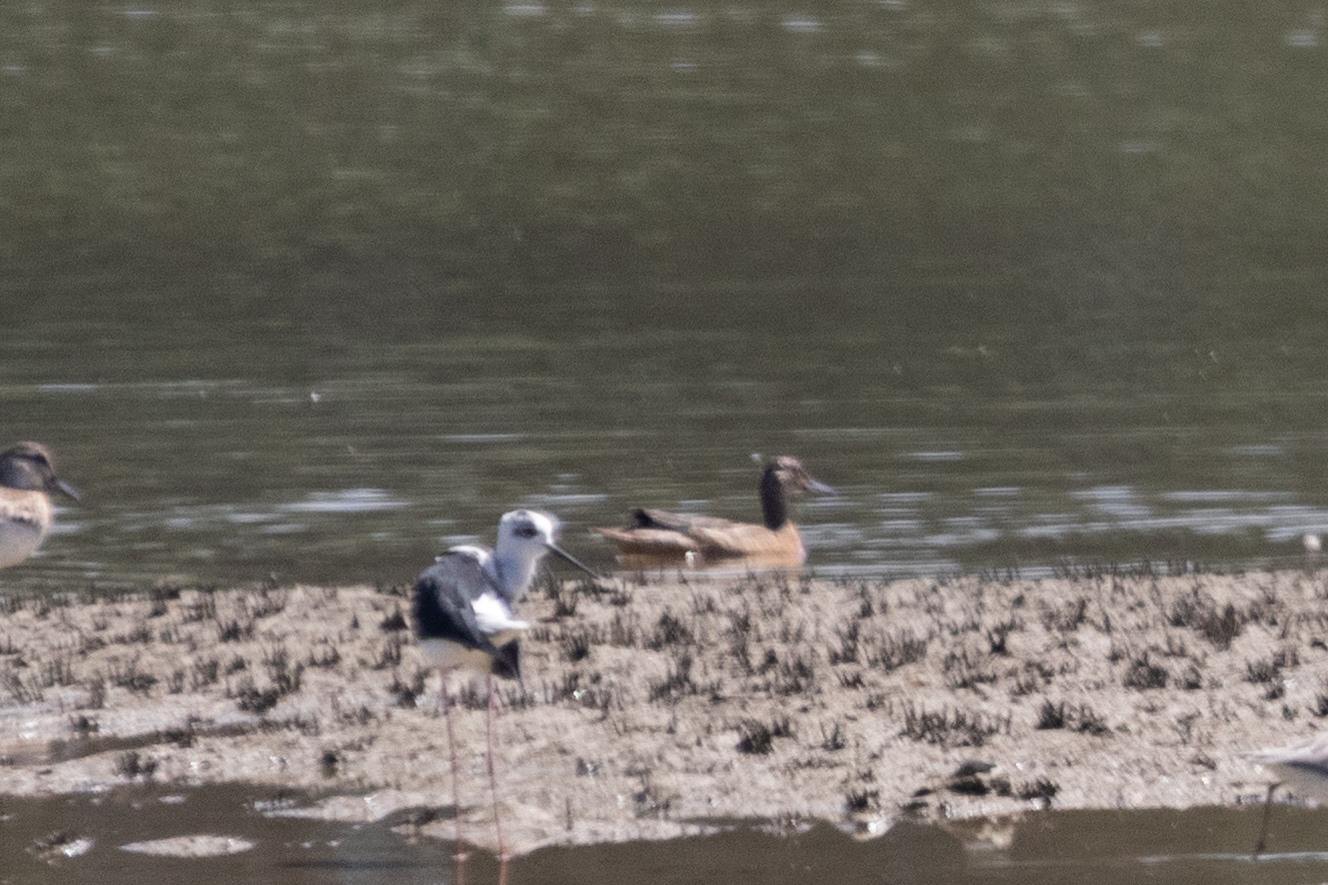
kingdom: Animalia
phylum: Chordata
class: Aves
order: Anseriformes
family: Anatidae
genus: Spatula
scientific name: Spatula querquedula
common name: Garganey
